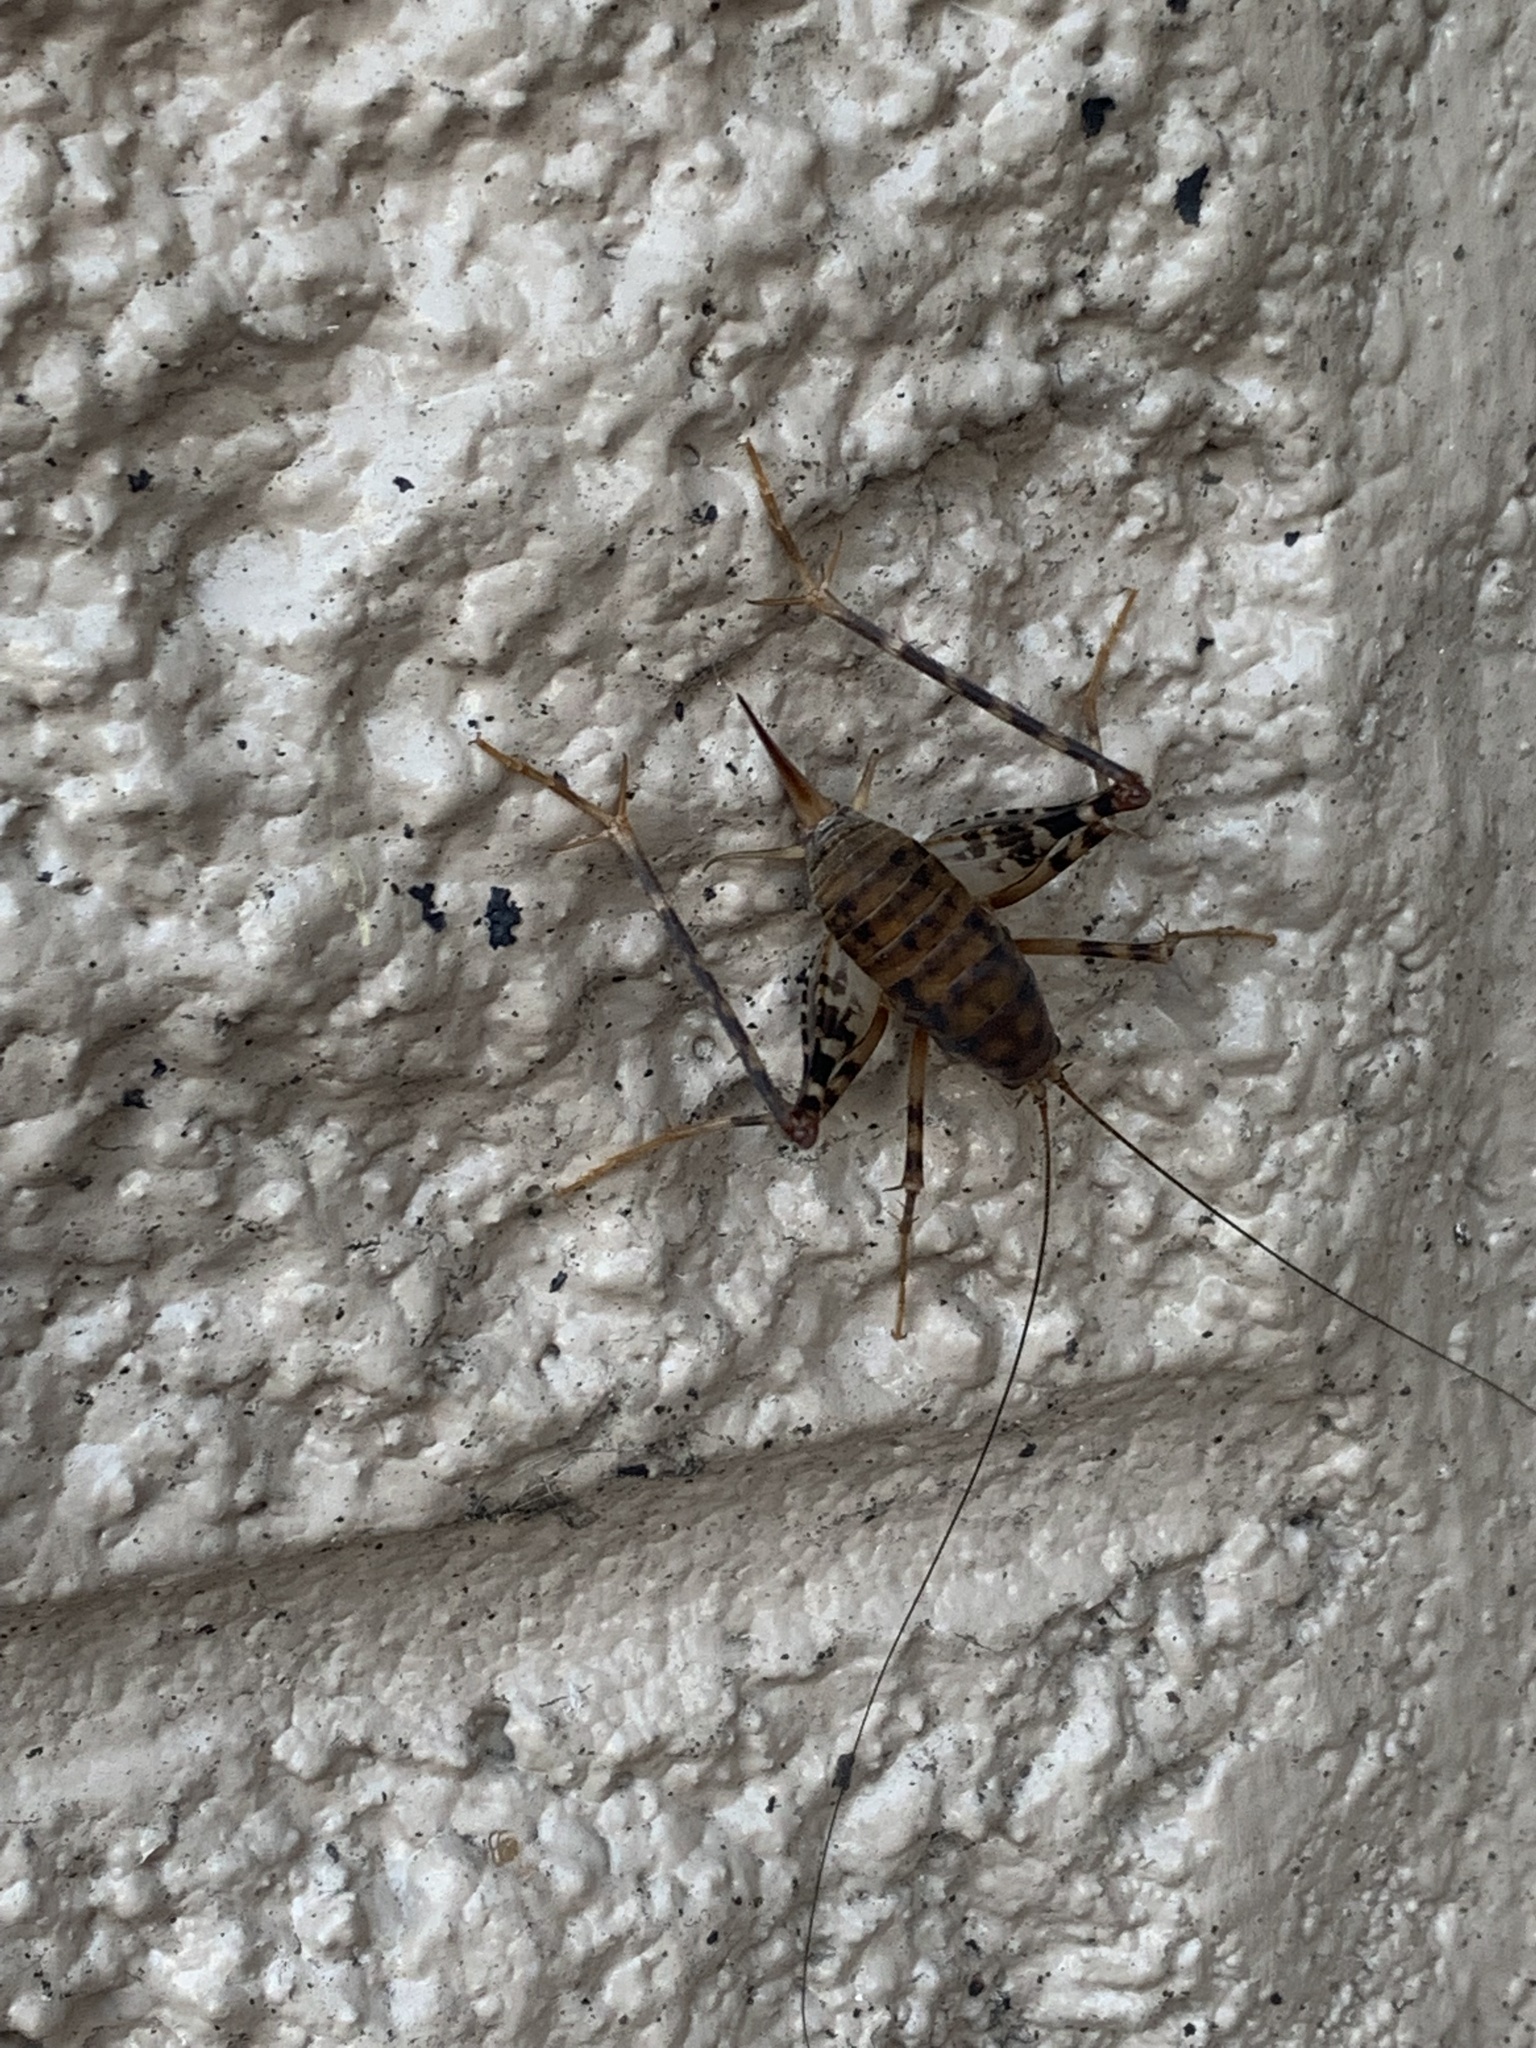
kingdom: Animalia
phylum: Arthropoda
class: Insecta
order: Orthoptera
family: Rhaphidophoridae
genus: Tachycines
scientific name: Tachycines asynamorus
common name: Greenhouse camel cricket
